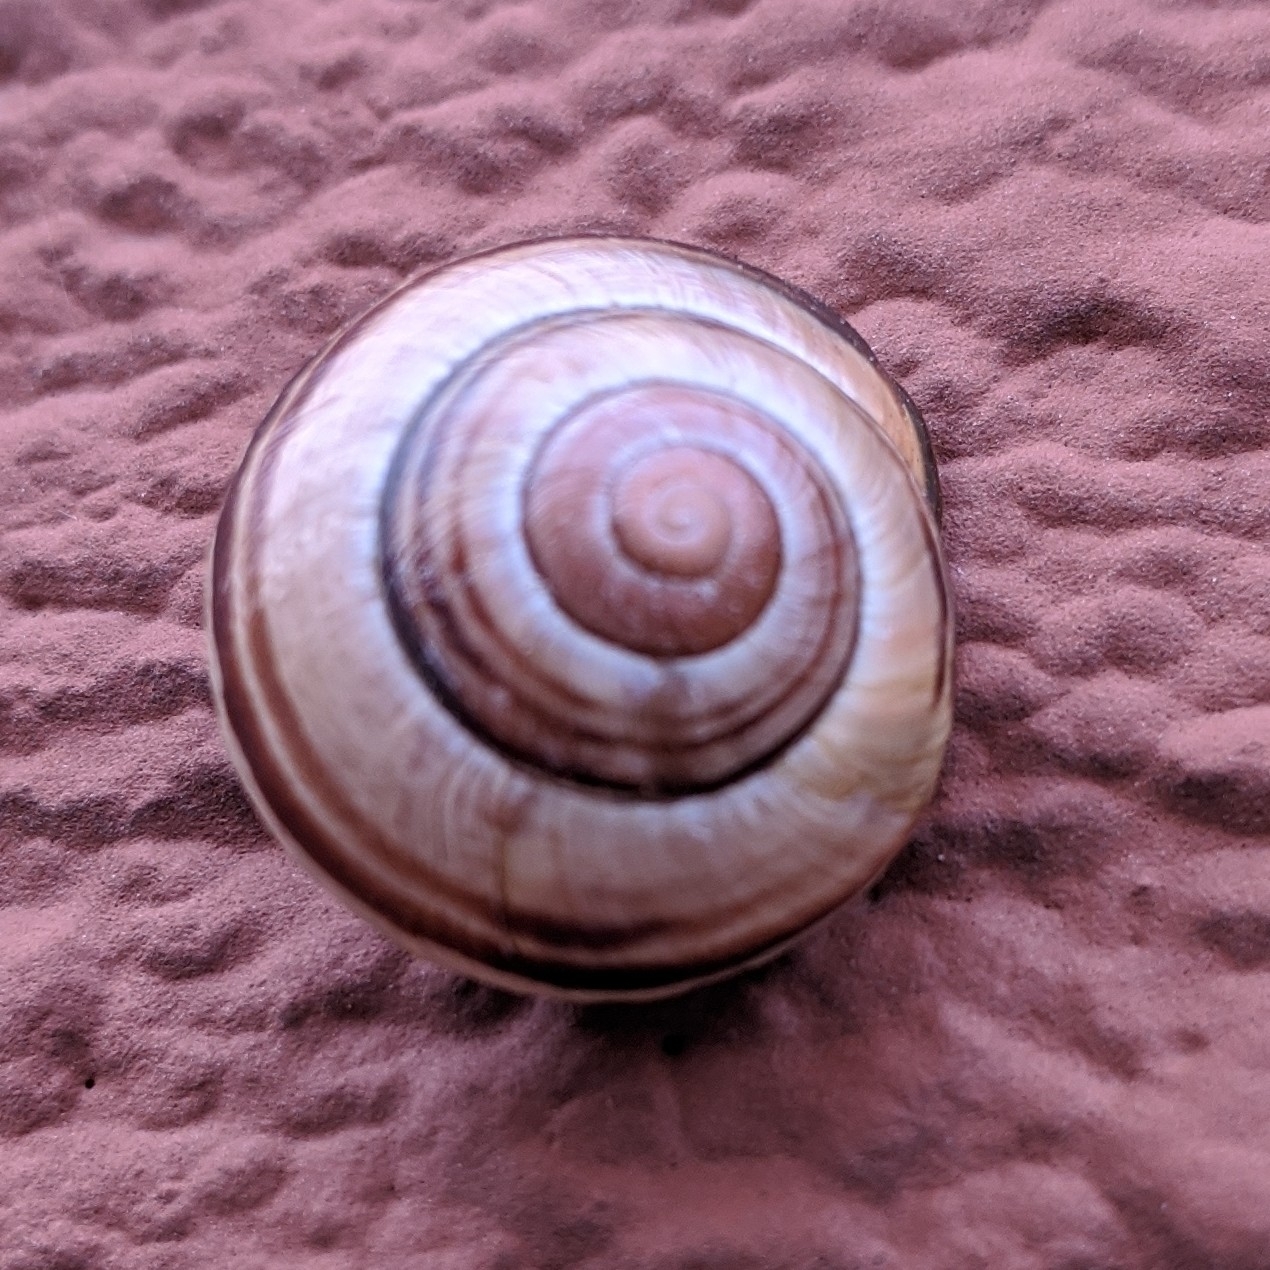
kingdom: Animalia
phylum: Mollusca
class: Gastropoda
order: Stylommatophora
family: Helicidae
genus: Cepaea
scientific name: Cepaea nemoralis
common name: Grovesnail
